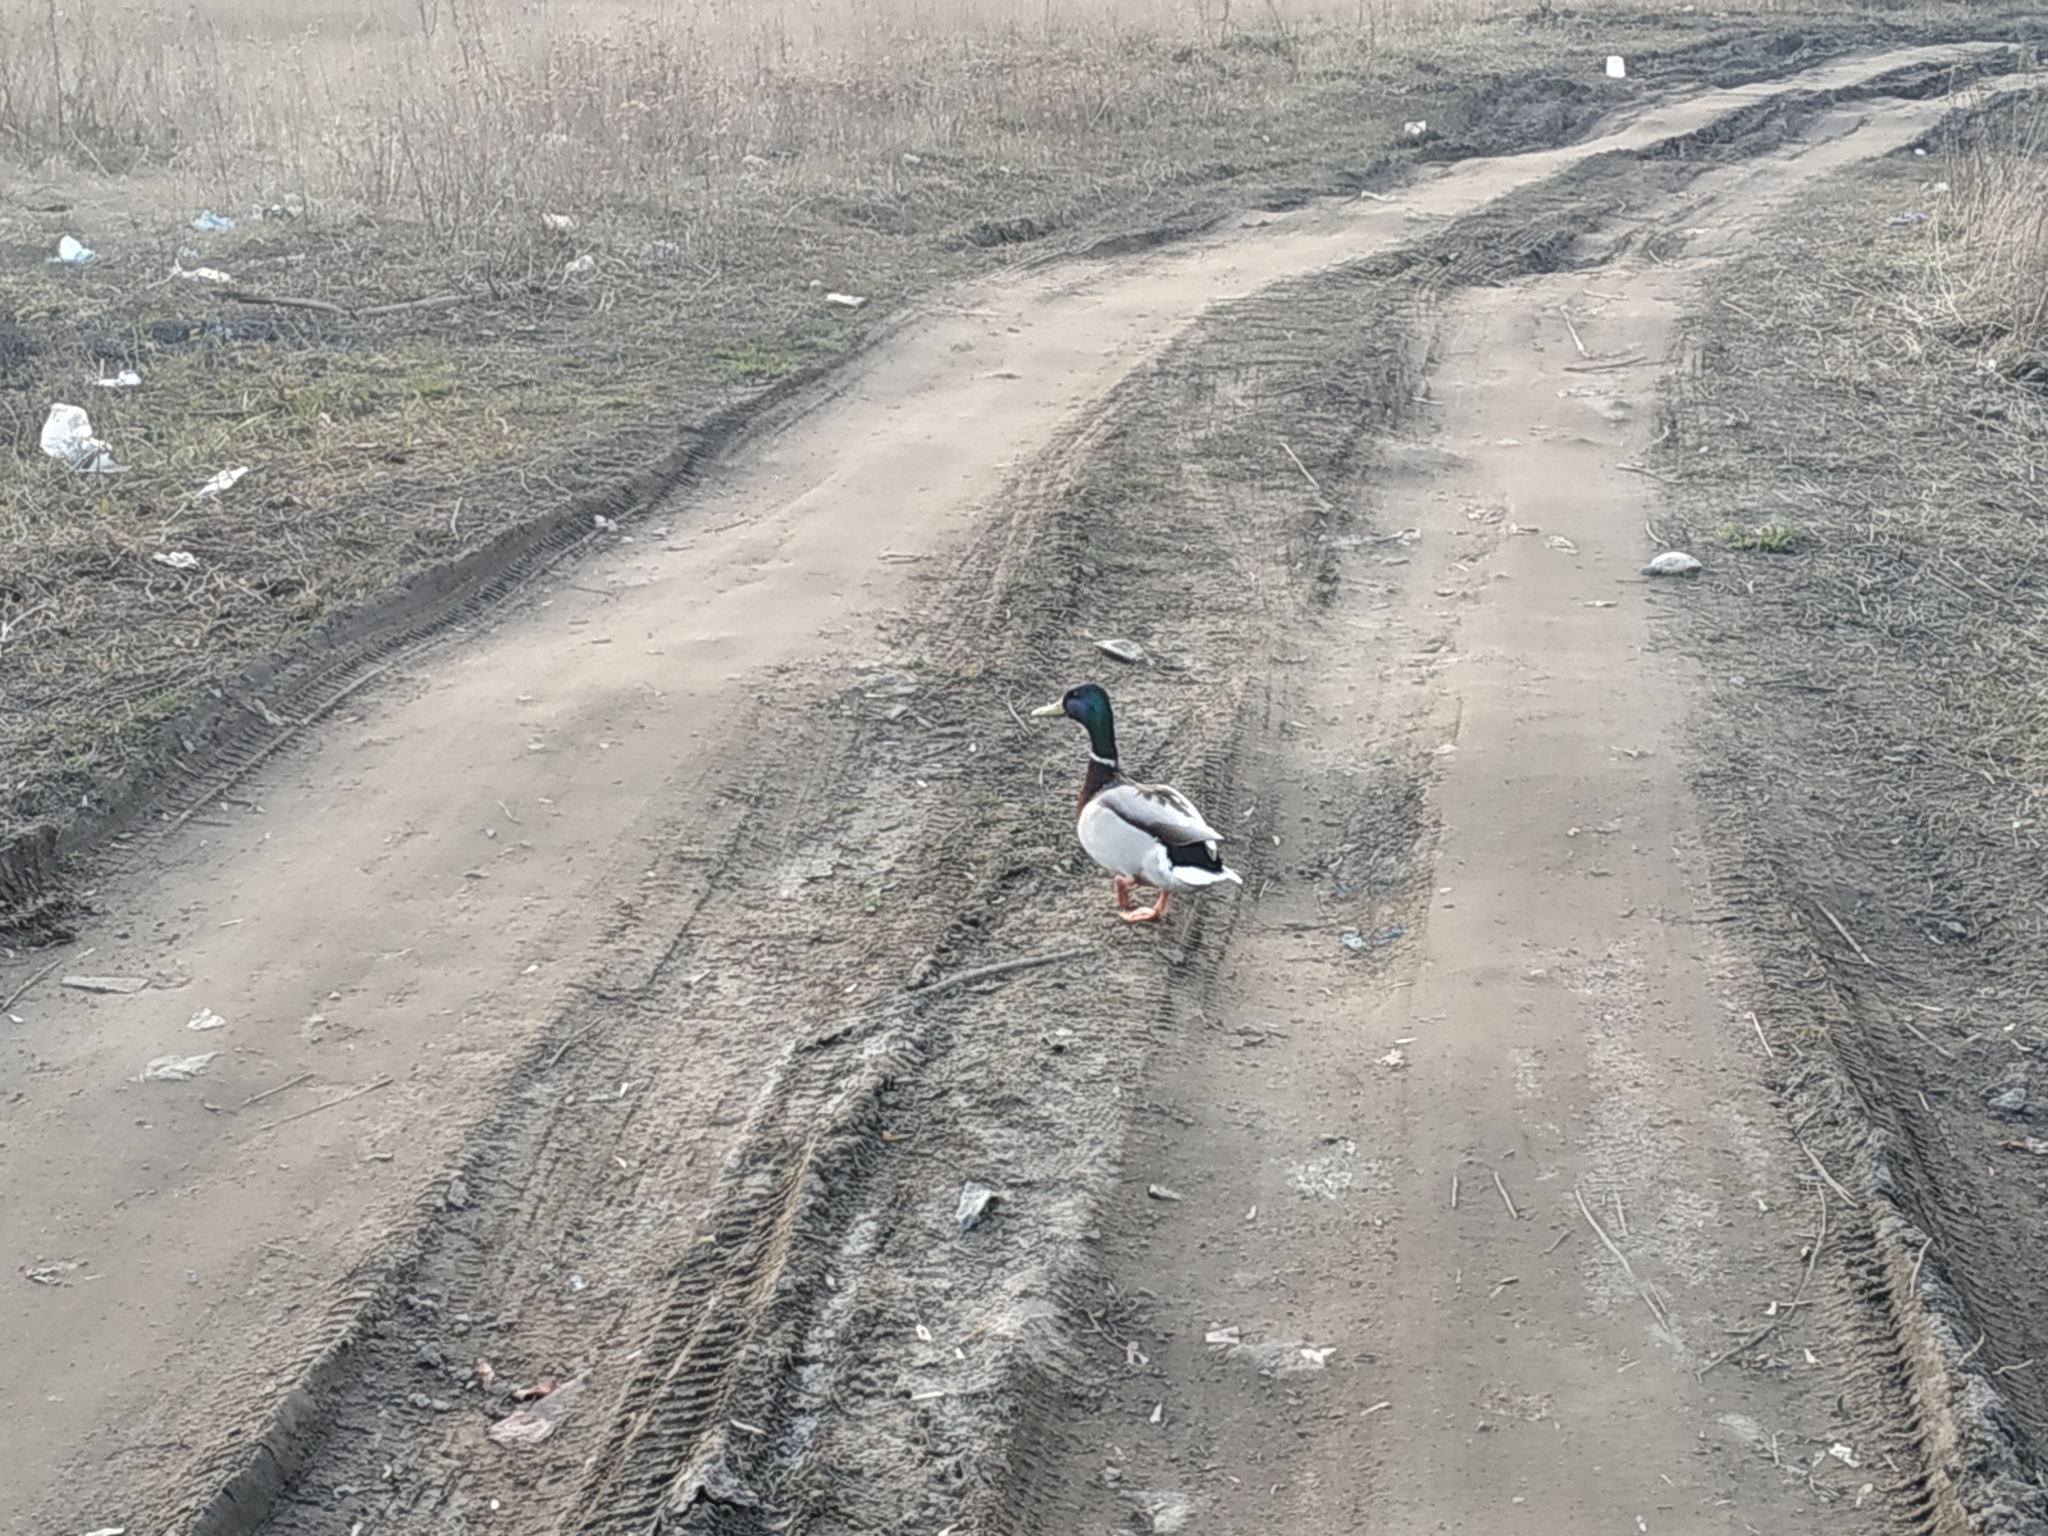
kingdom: Animalia
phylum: Chordata
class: Aves
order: Anseriformes
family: Anatidae
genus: Anas
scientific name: Anas platyrhynchos
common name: Mallard
